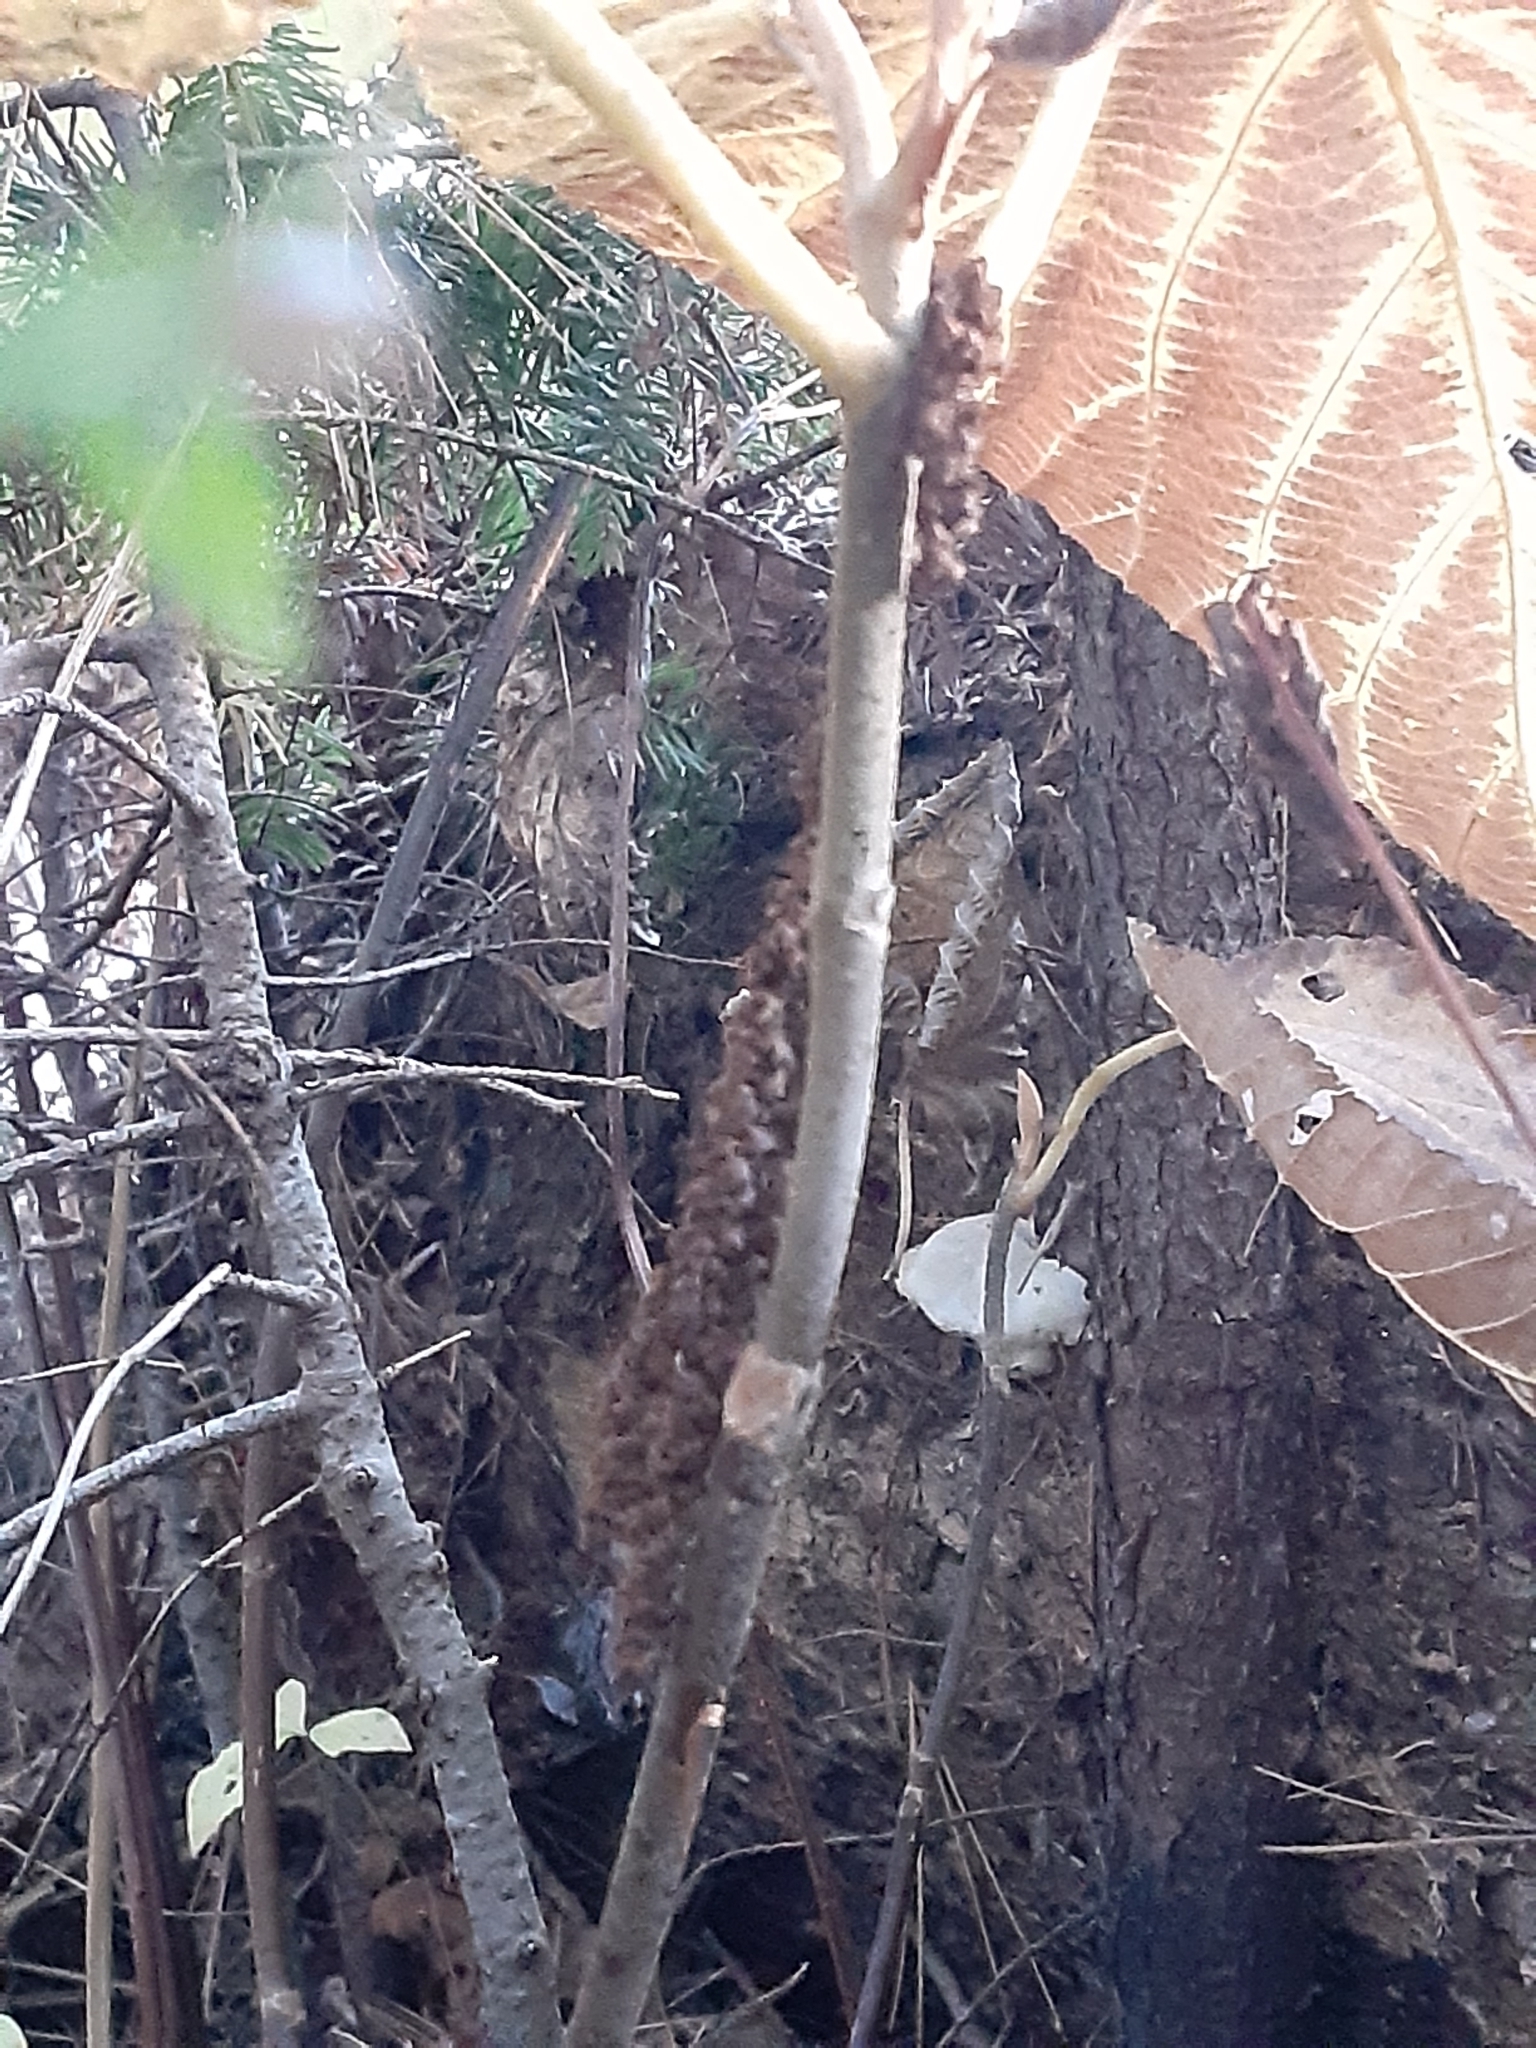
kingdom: Plantae
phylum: Tracheophyta
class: Magnoliopsida
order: Dipsacales
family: Viburnaceae
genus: Viburnum
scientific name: Viburnum lantanoides
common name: Hobblebush
